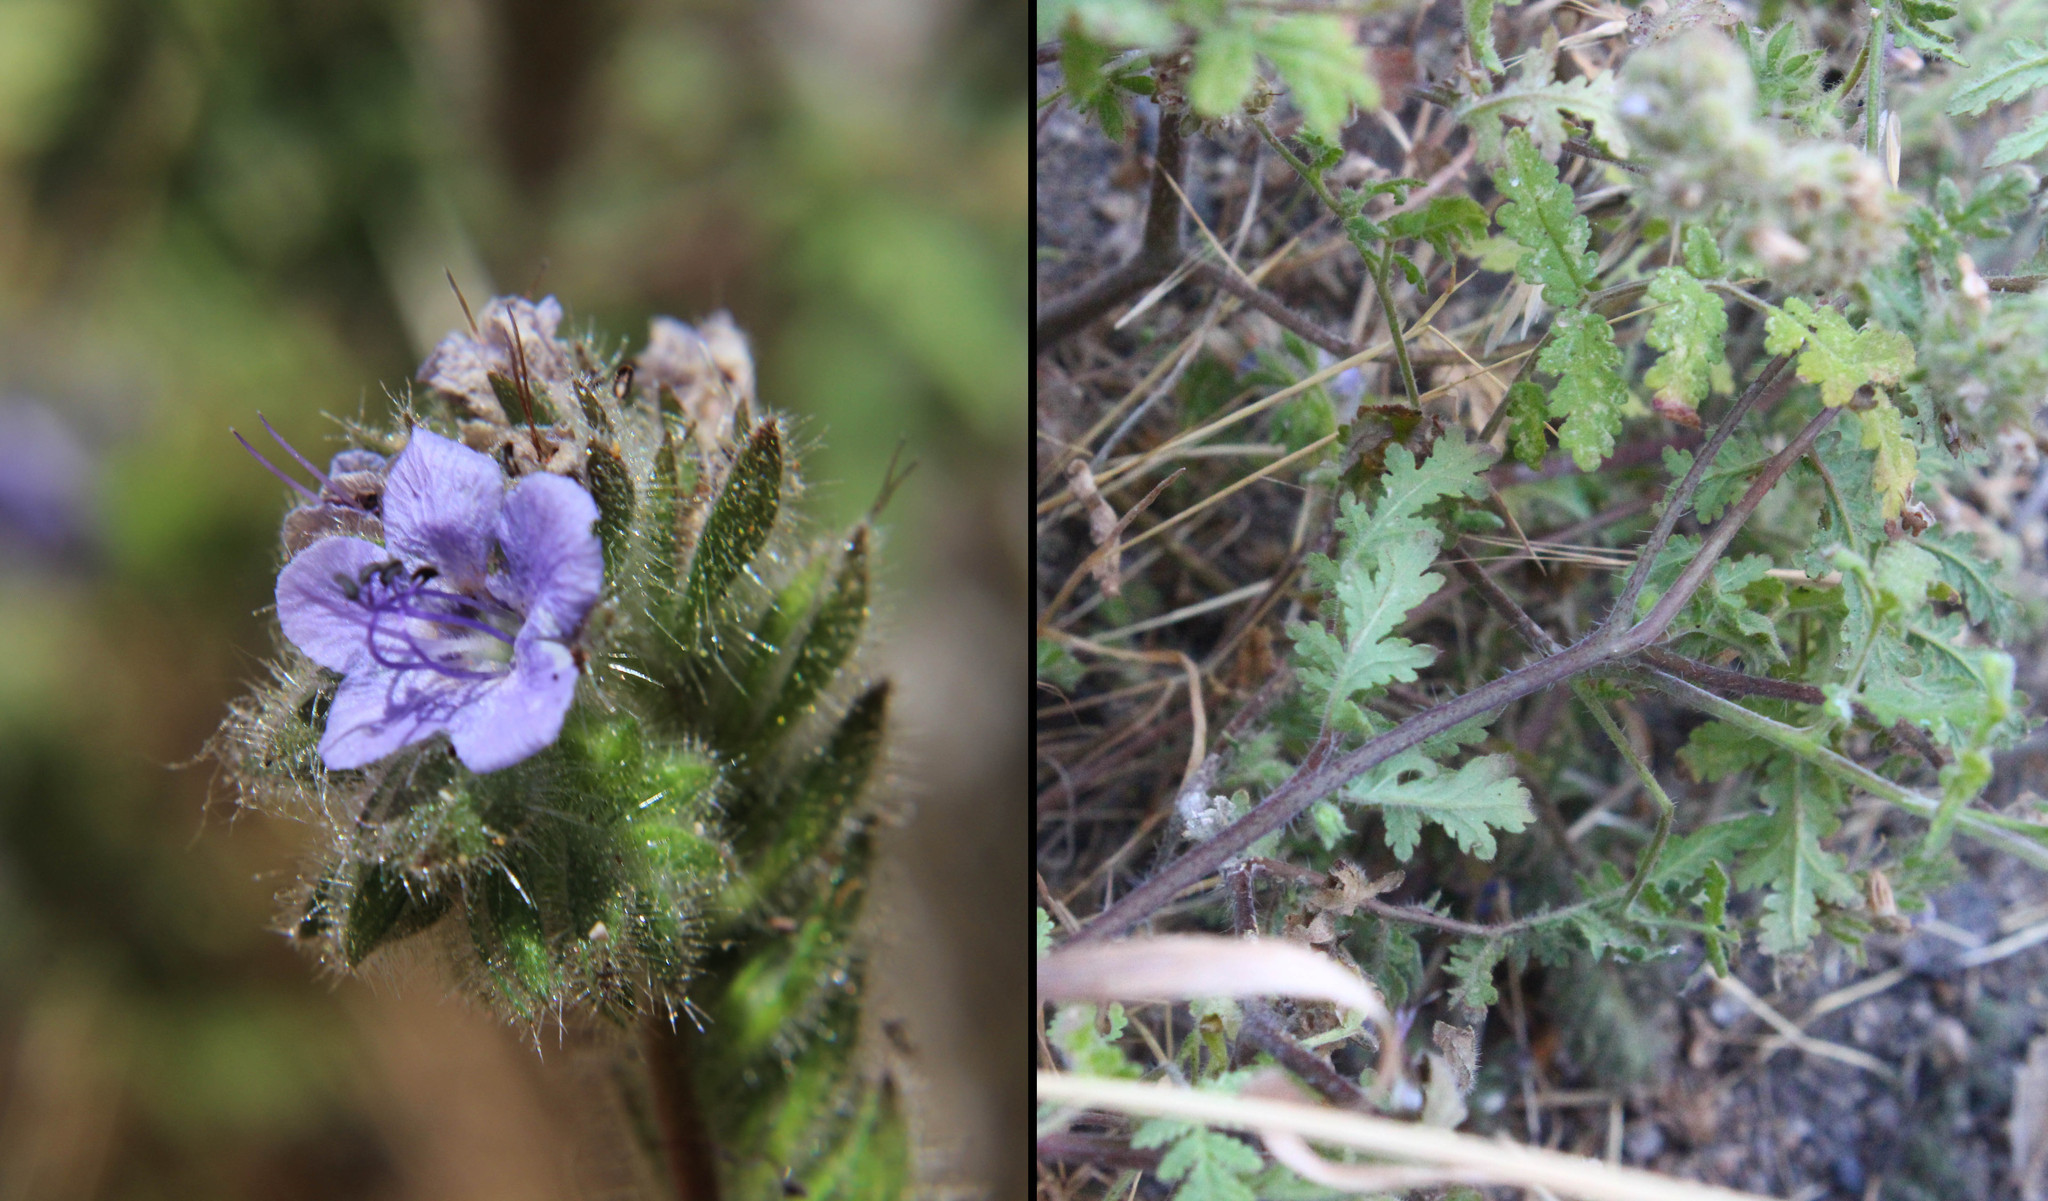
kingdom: Plantae
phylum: Tracheophyta
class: Magnoliopsida
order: Boraginales
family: Hydrophyllaceae
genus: Phacelia
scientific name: Phacelia distans
